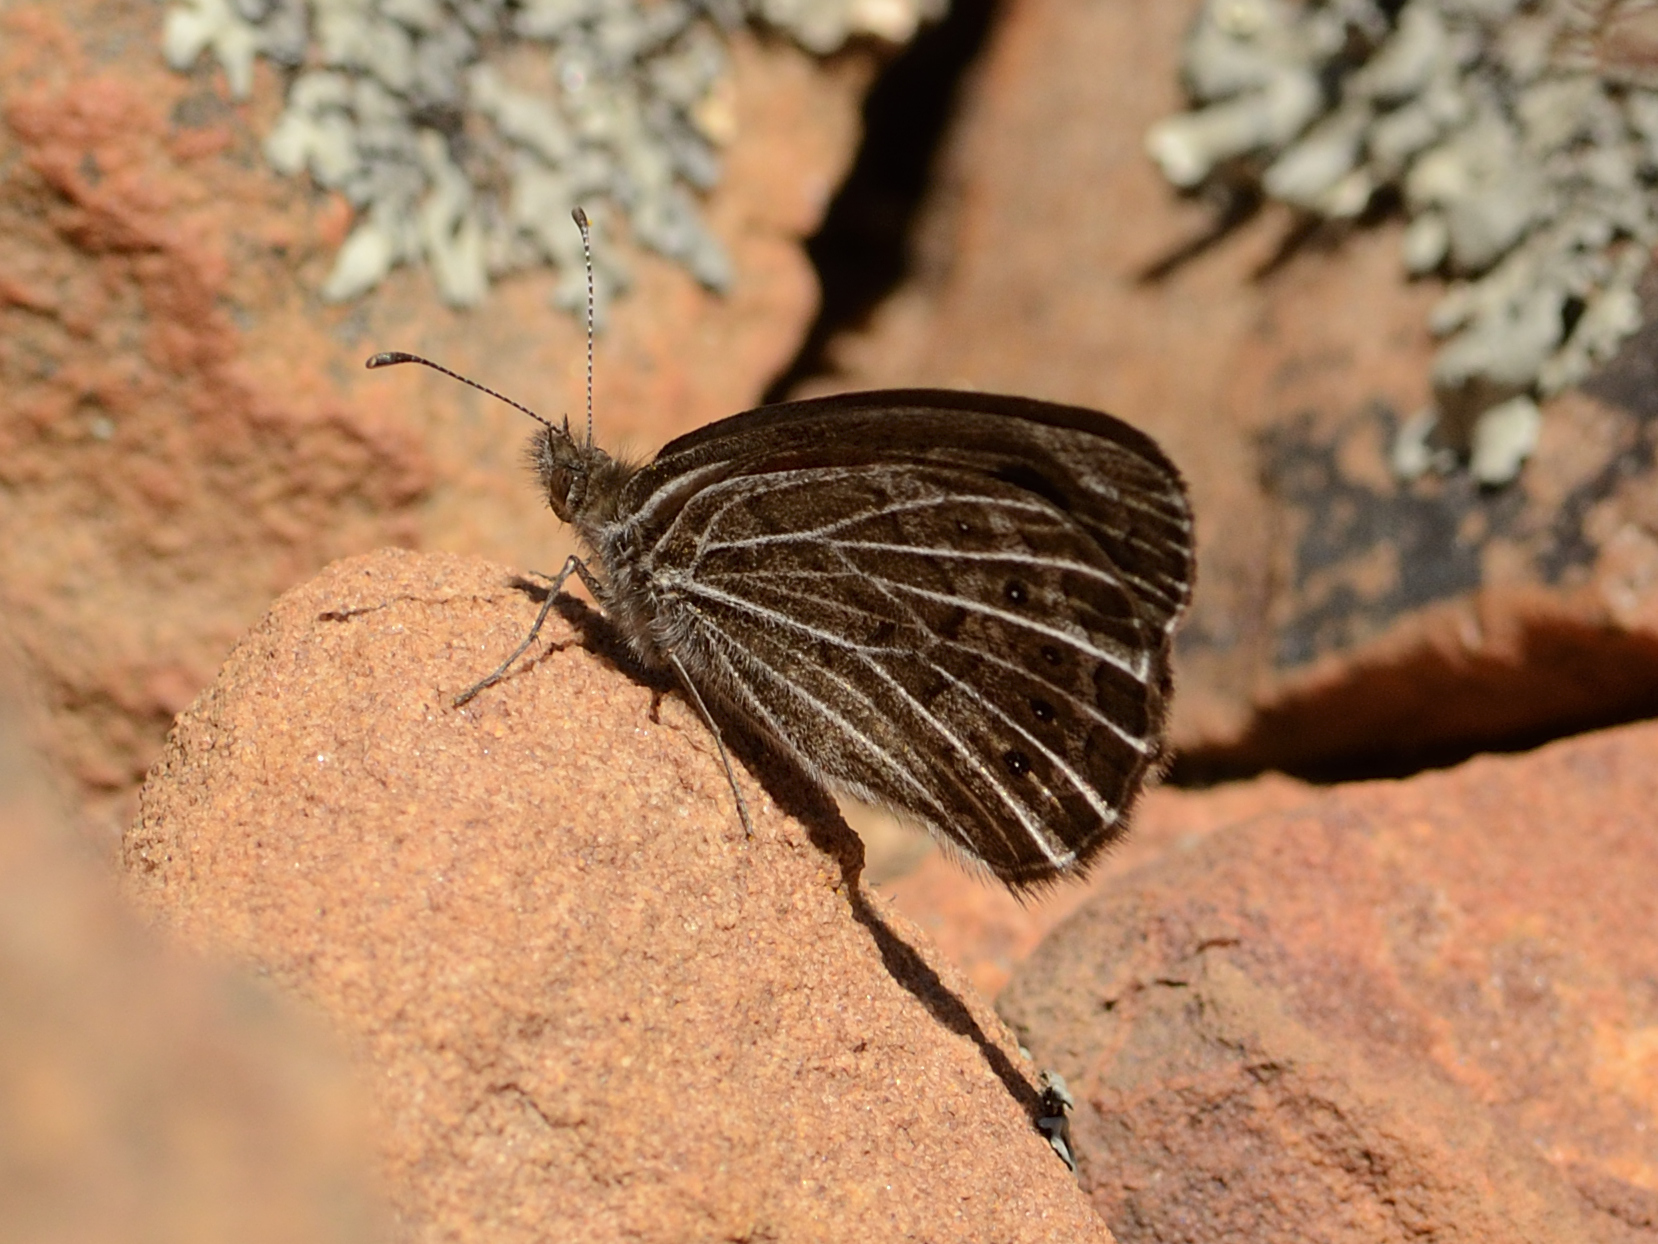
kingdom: Animalia
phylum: Arthropoda
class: Insecta
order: Lepidoptera
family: Nymphalidae
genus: Pseudonympha
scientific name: Pseudonympha trimenii
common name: Trimen’s brown
